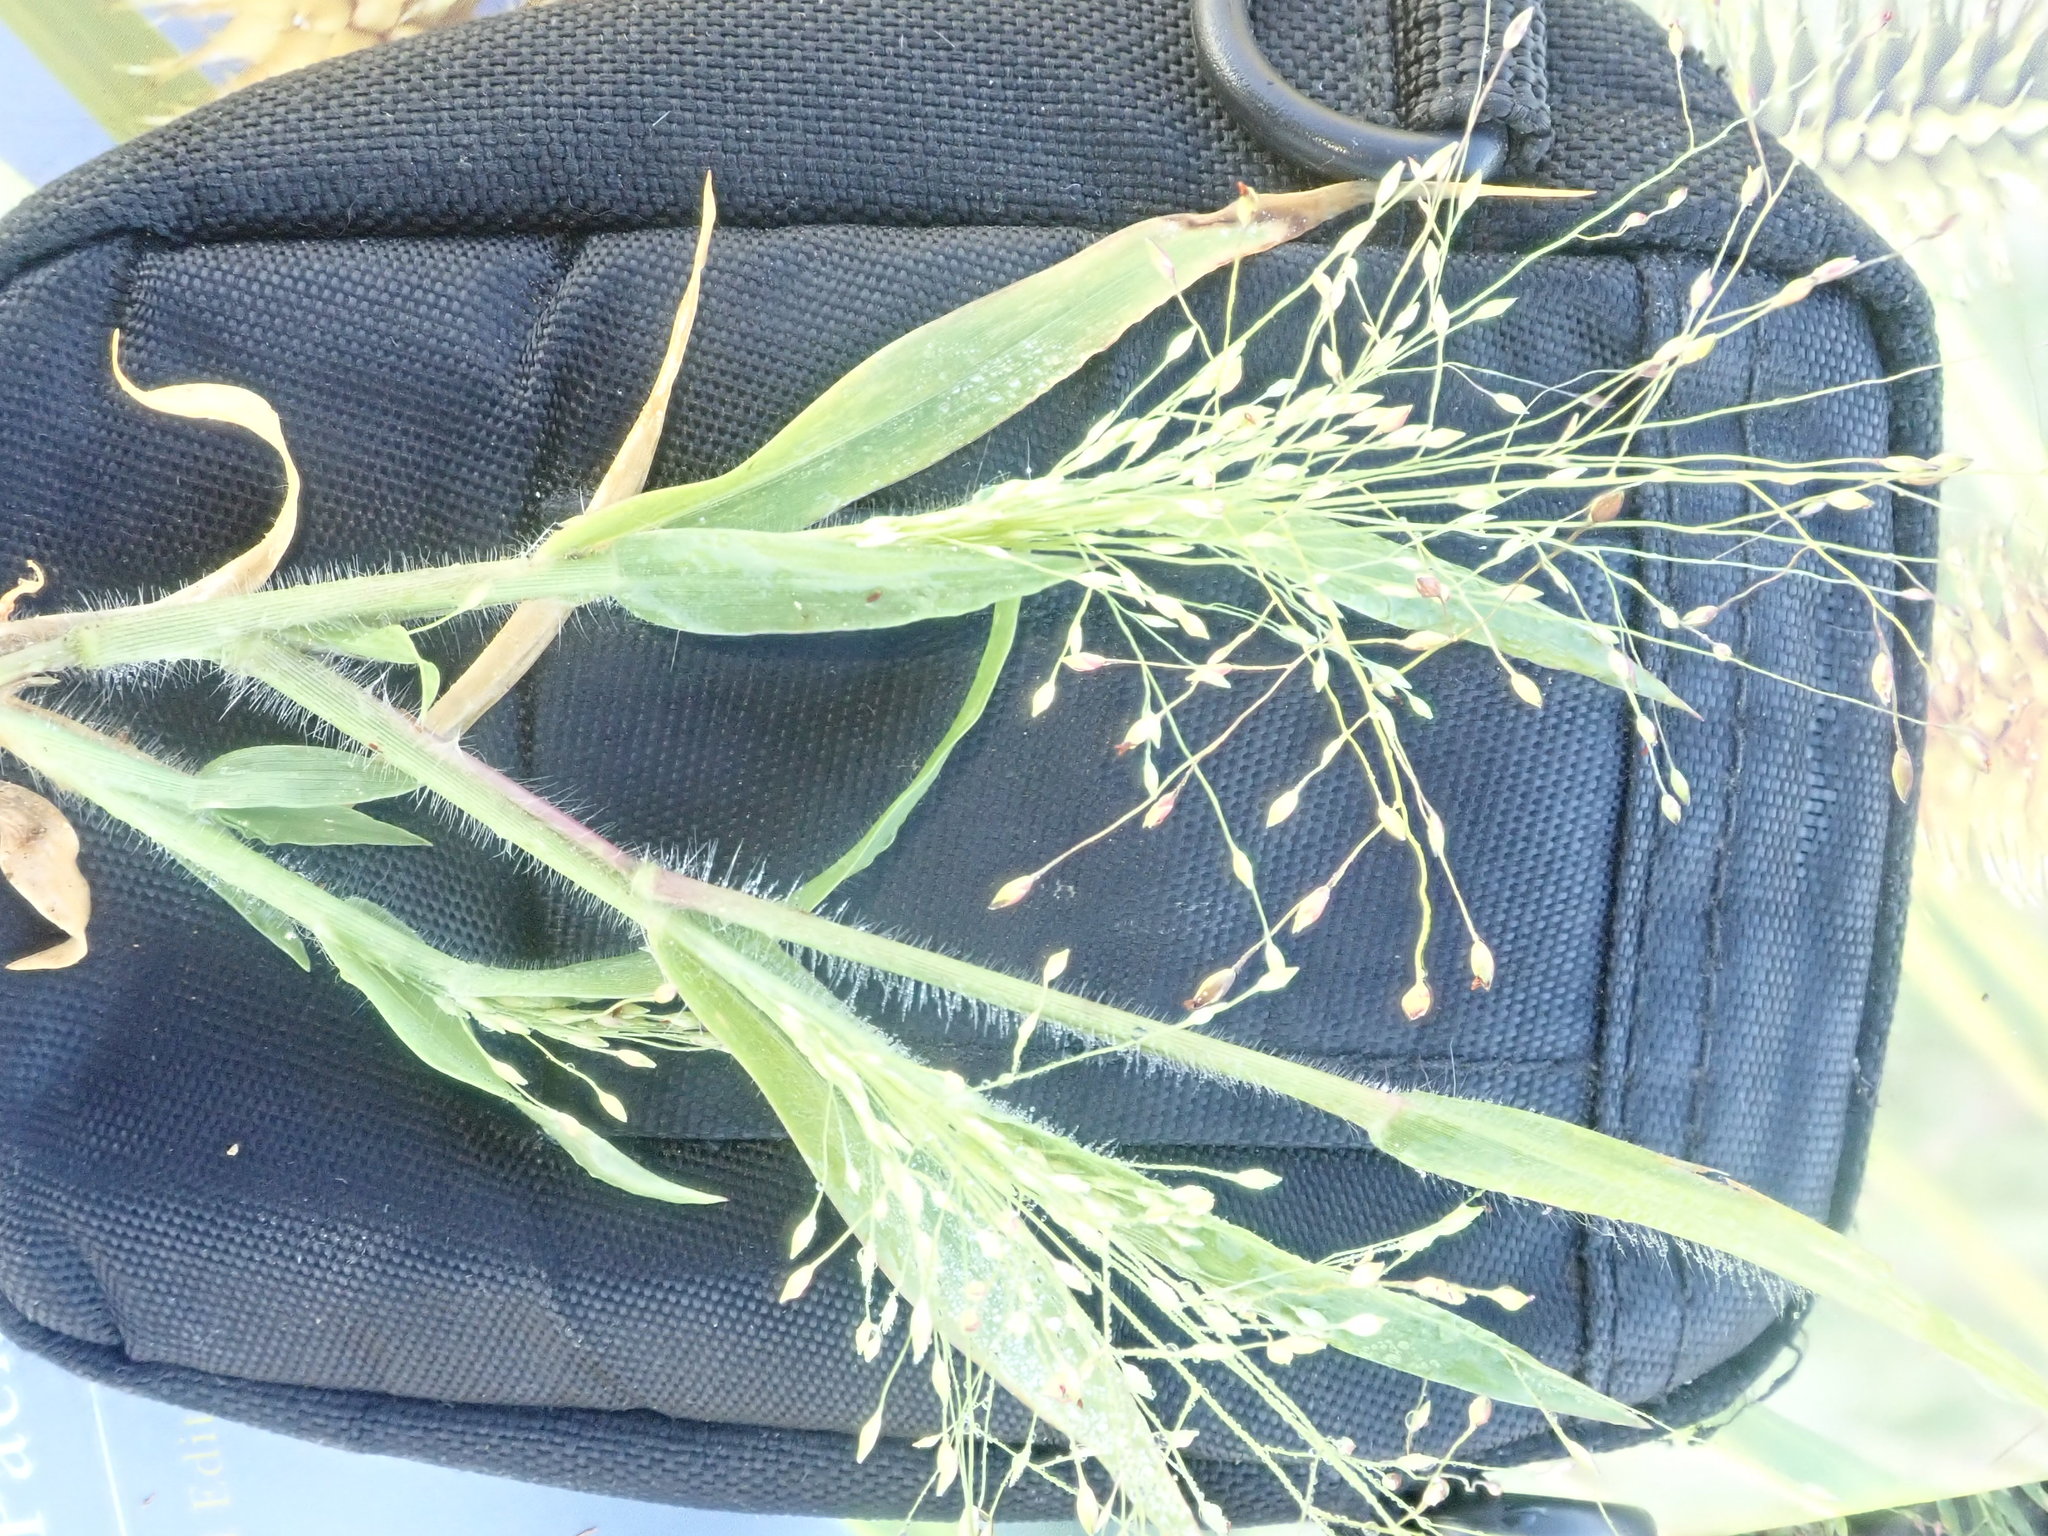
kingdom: Plantae
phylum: Tracheophyta
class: Liliopsida
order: Poales
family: Poaceae
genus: Panicum
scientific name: Panicum capillare
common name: Witch-grass
